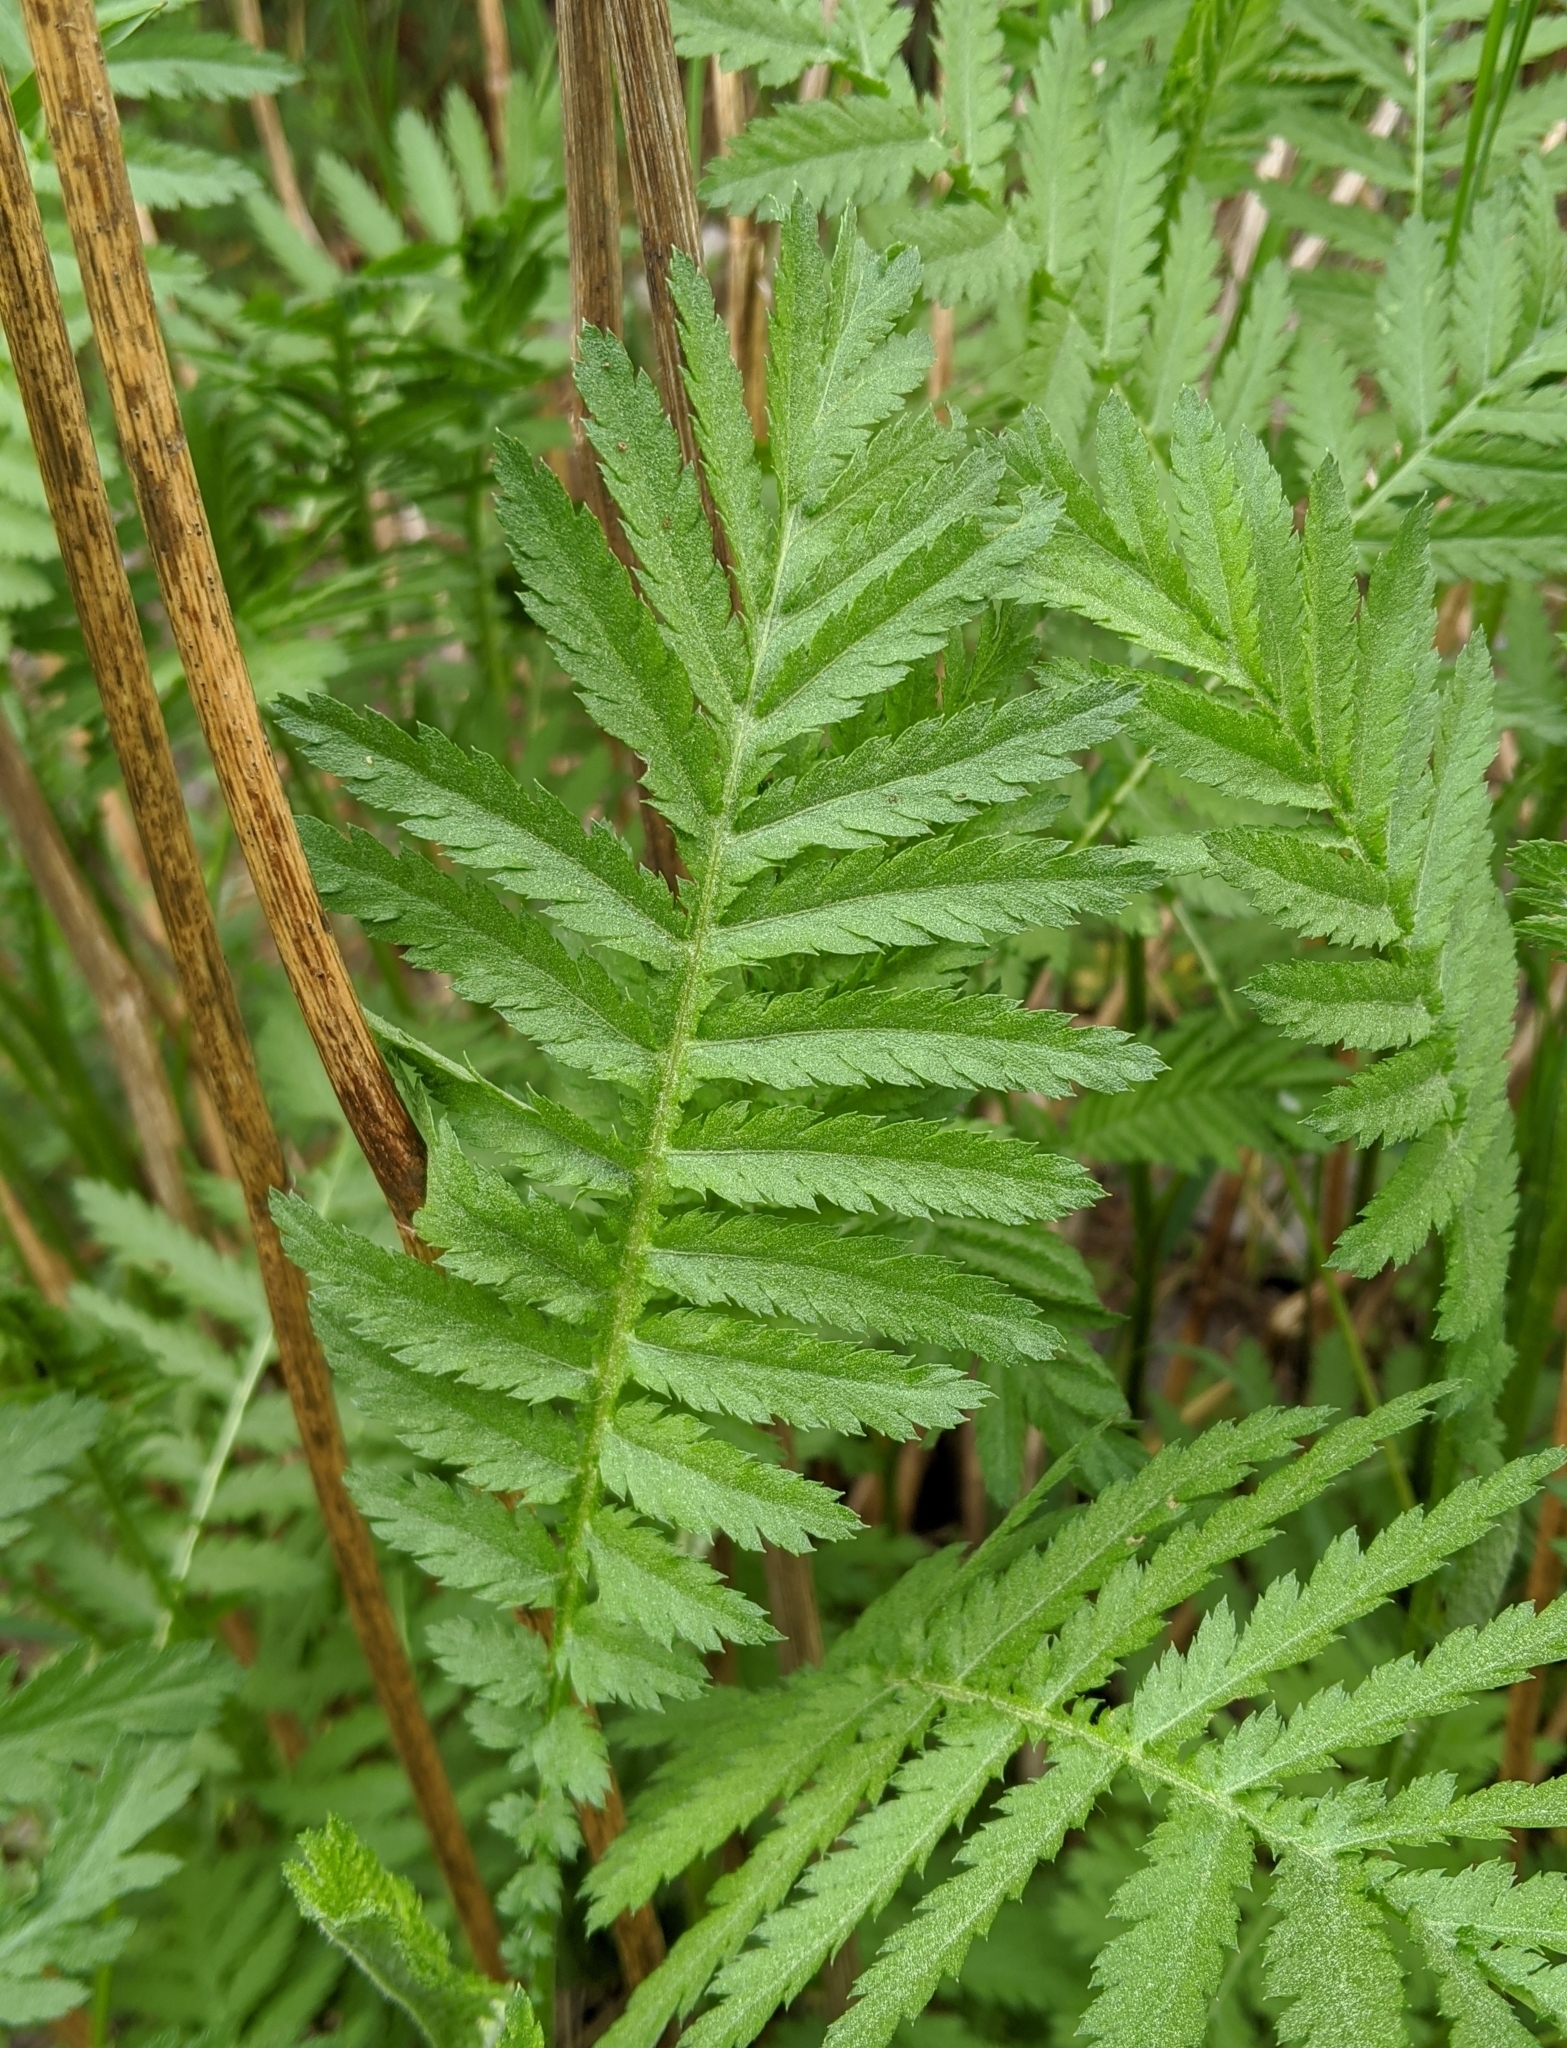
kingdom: Plantae
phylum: Tracheophyta
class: Magnoliopsida
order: Asterales
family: Asteraceae
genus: Tanacetum
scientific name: Tanacetum vulgare
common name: Common tansy
